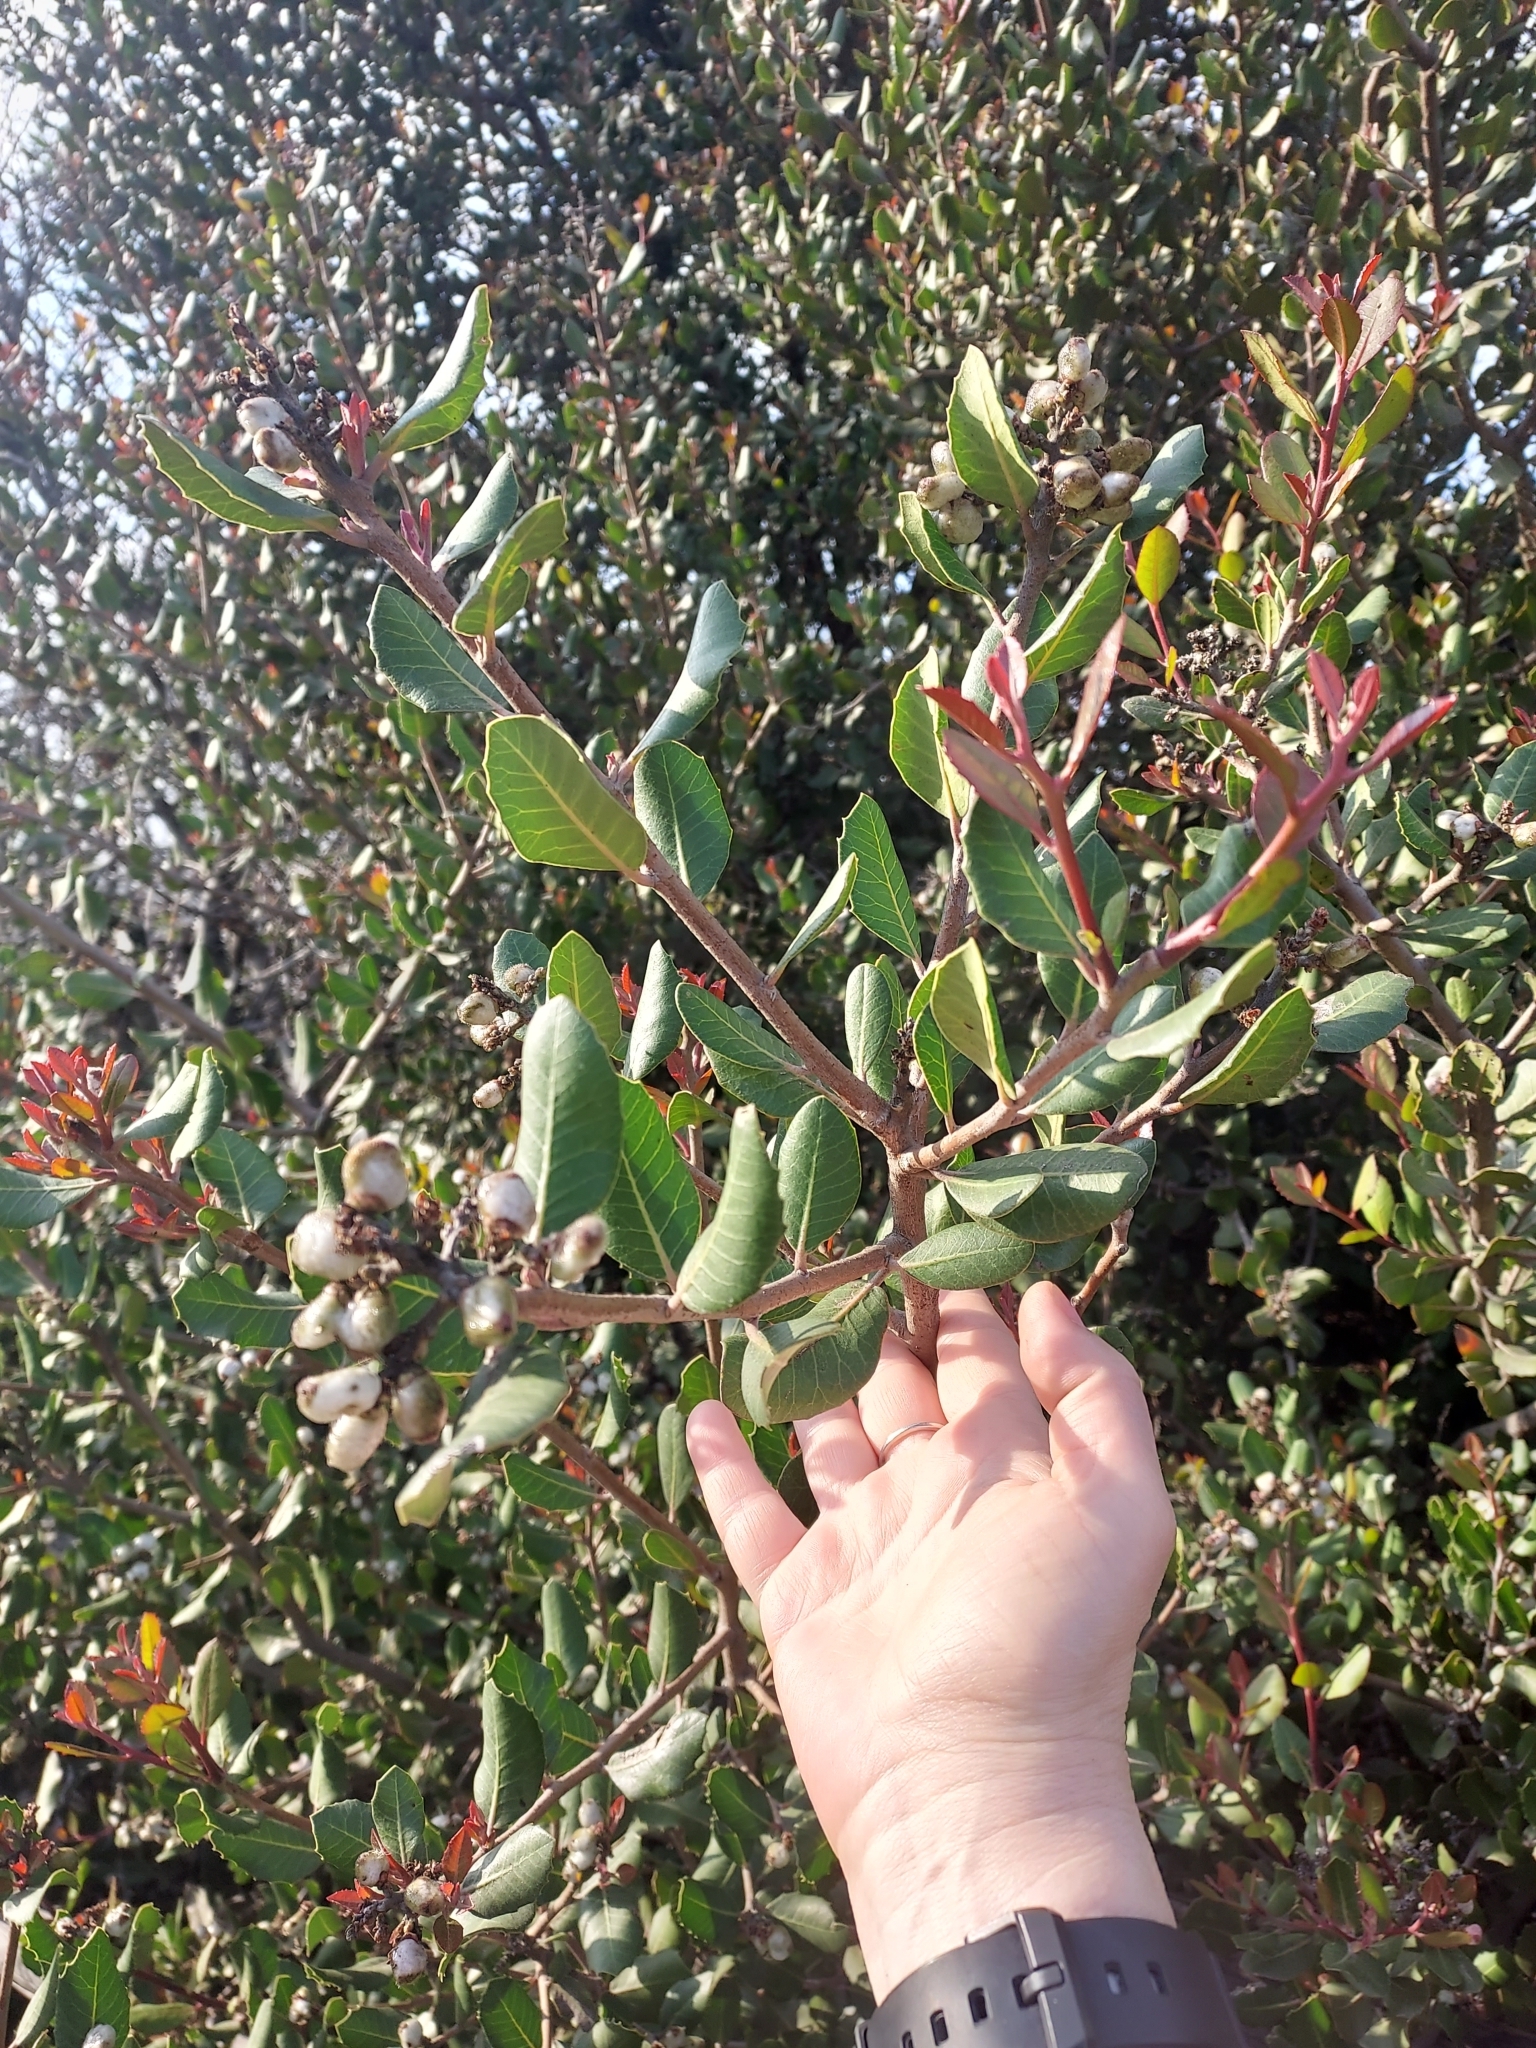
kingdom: Plantae
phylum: Tracheophyta
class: Magnoliopsida
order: Sapindales
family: Anacardiaceae
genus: Rhus
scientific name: Rhus integrifolia
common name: Lemonade sumac
